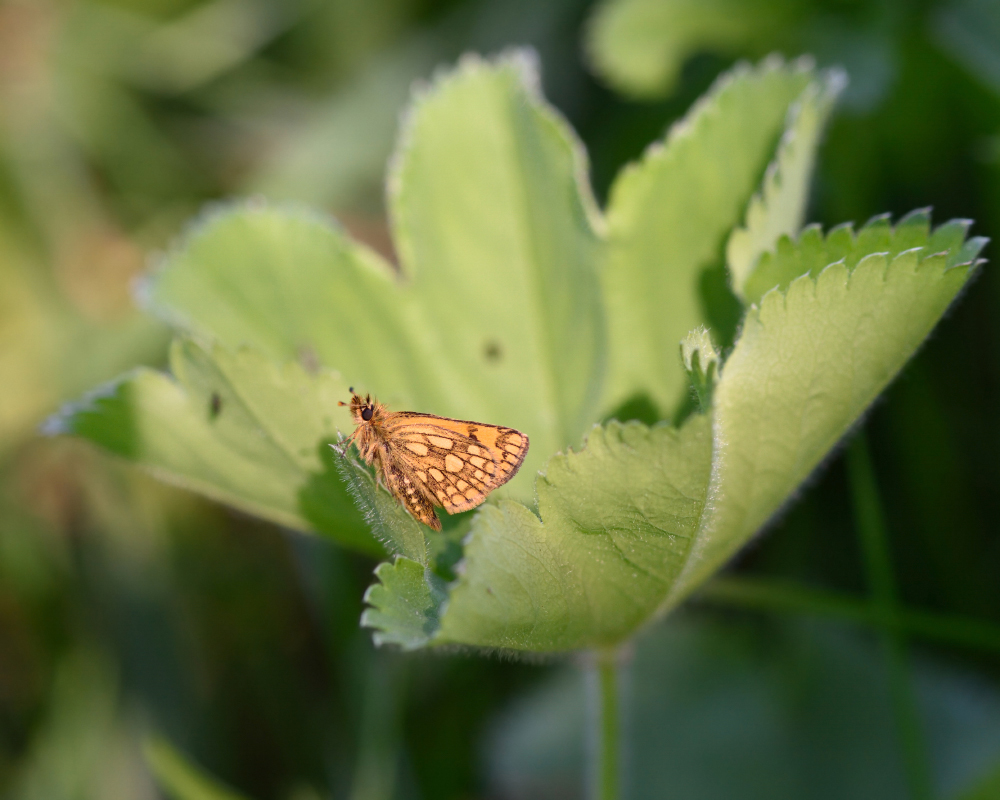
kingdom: Animalia
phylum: Arthropoda
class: Insecta
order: Lepidoptera
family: Hesperiidae
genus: Carterocephalus
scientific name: Carterocephalus silvicola
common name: Northern chequered skipper
